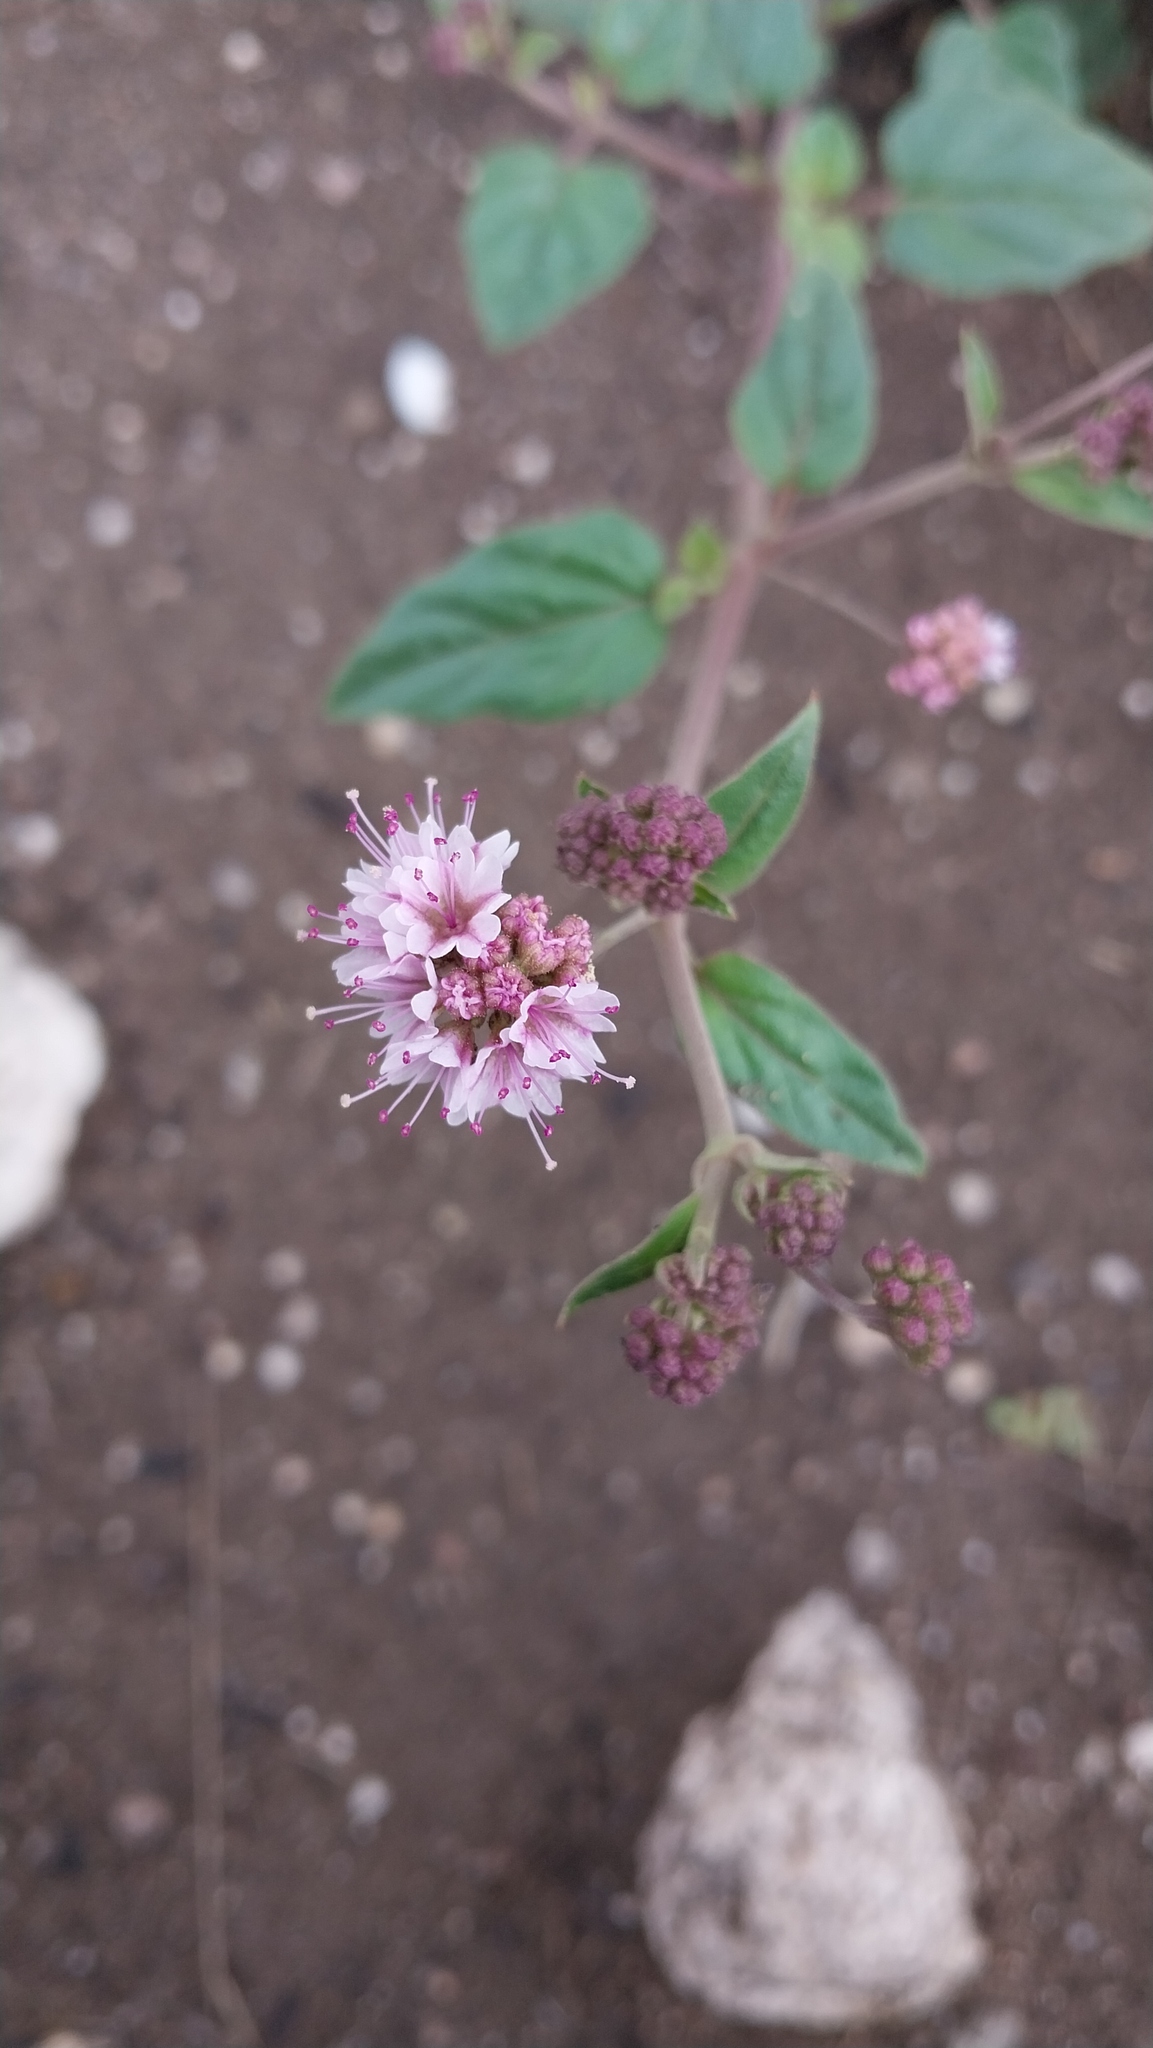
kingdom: Plantae
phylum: Tracheophyta
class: Magnoliopsida
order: Caryophyllales
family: Nyctaginaceae
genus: Boerhavia
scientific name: Boerhavia pulchella
